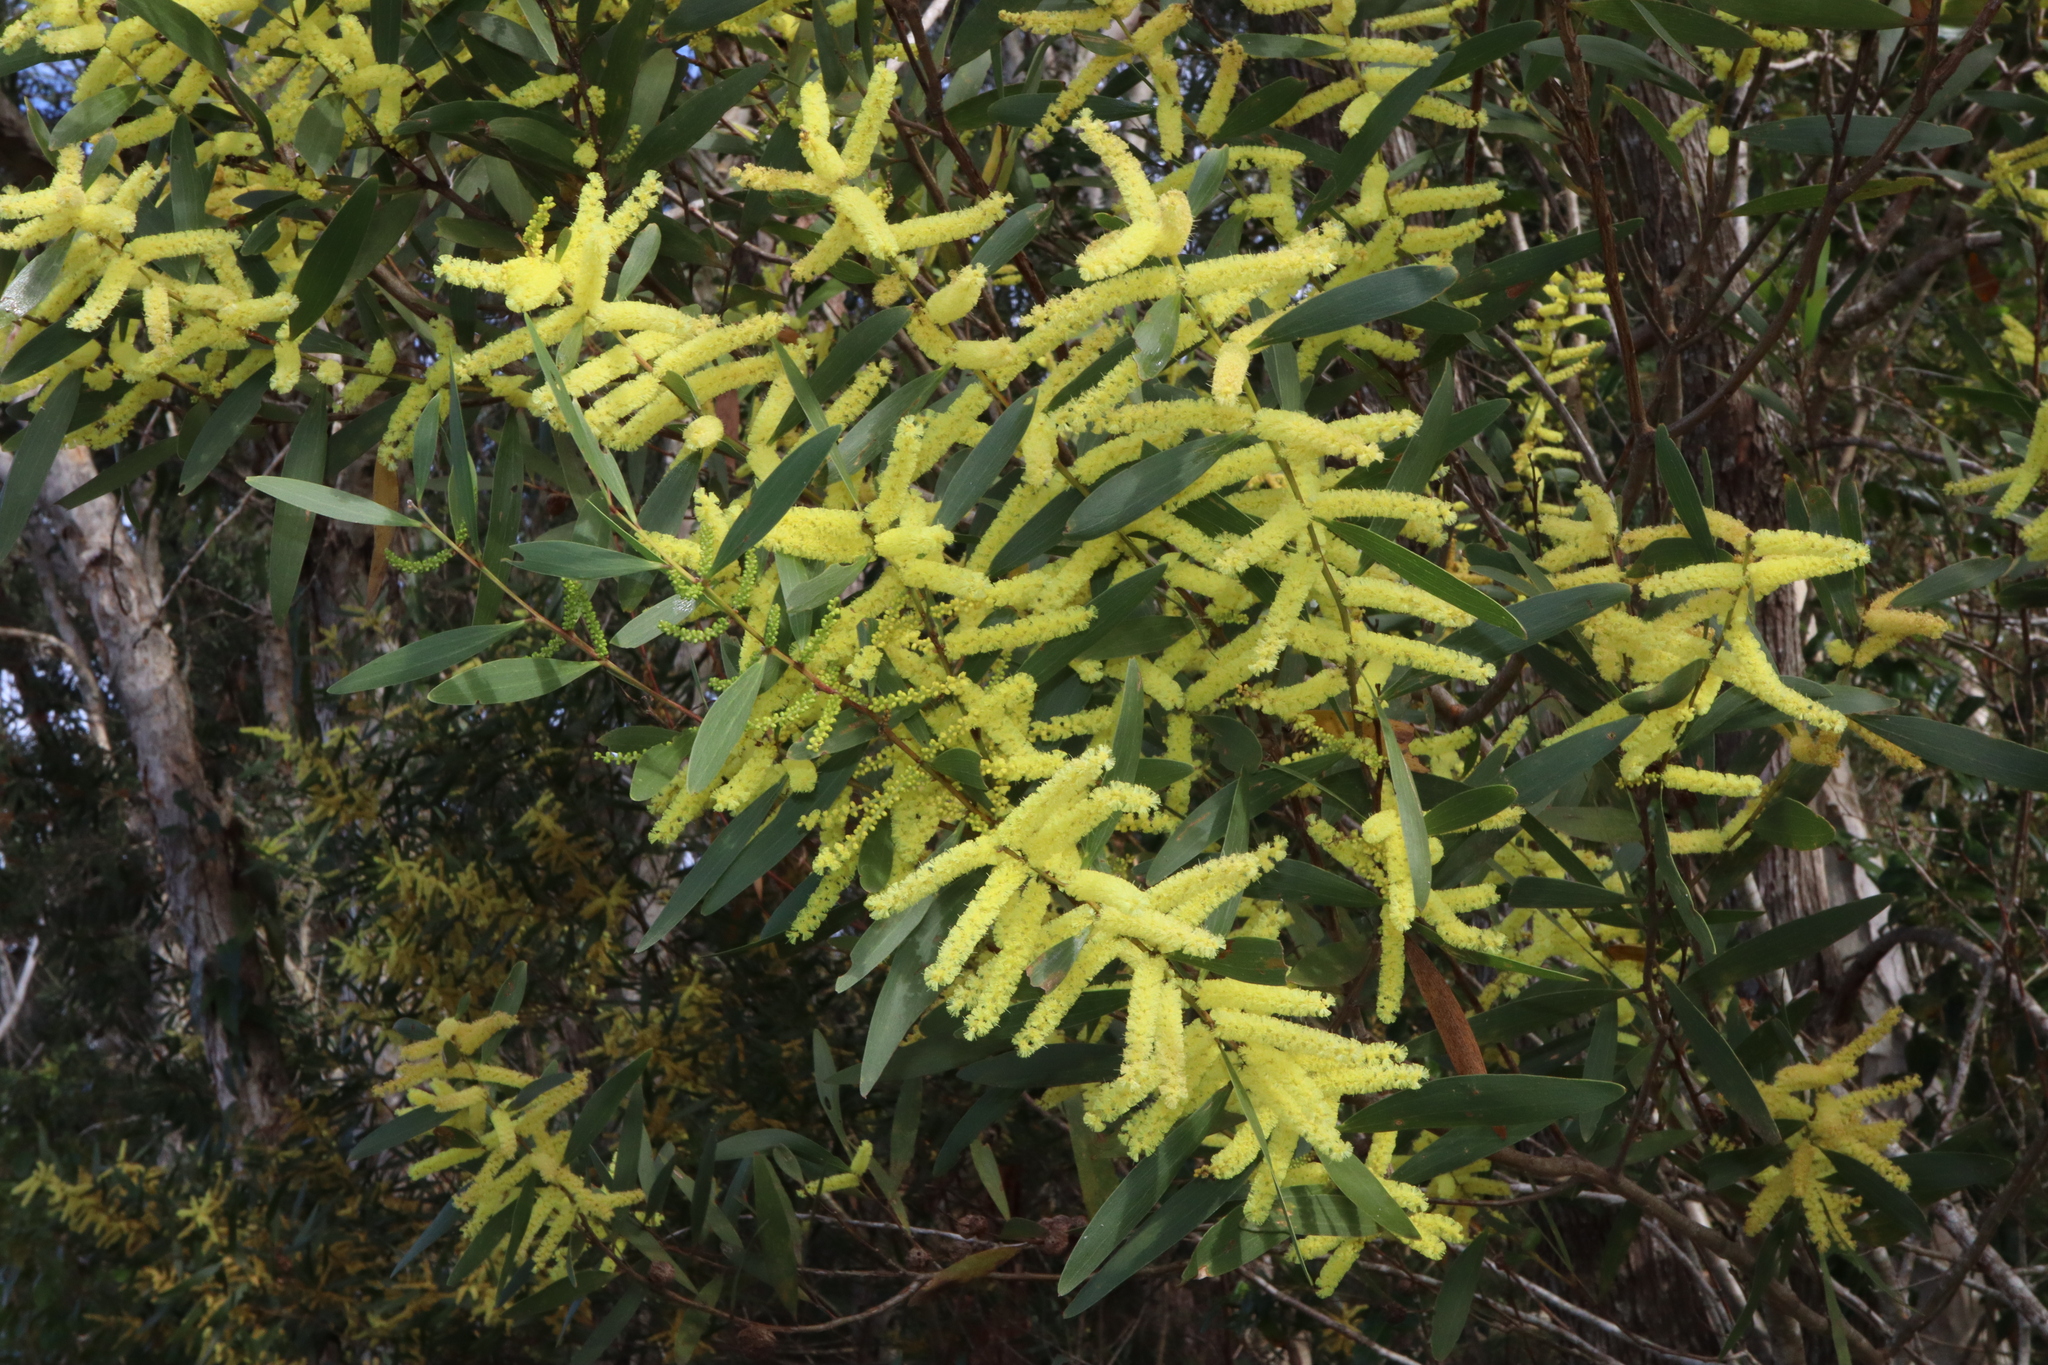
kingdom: Plantae
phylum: Tracheophyta
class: Magnoliopsida
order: Fabales
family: Fabaceae
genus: Acacia
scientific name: Acacia longifolia
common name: Sydney golden wattle
